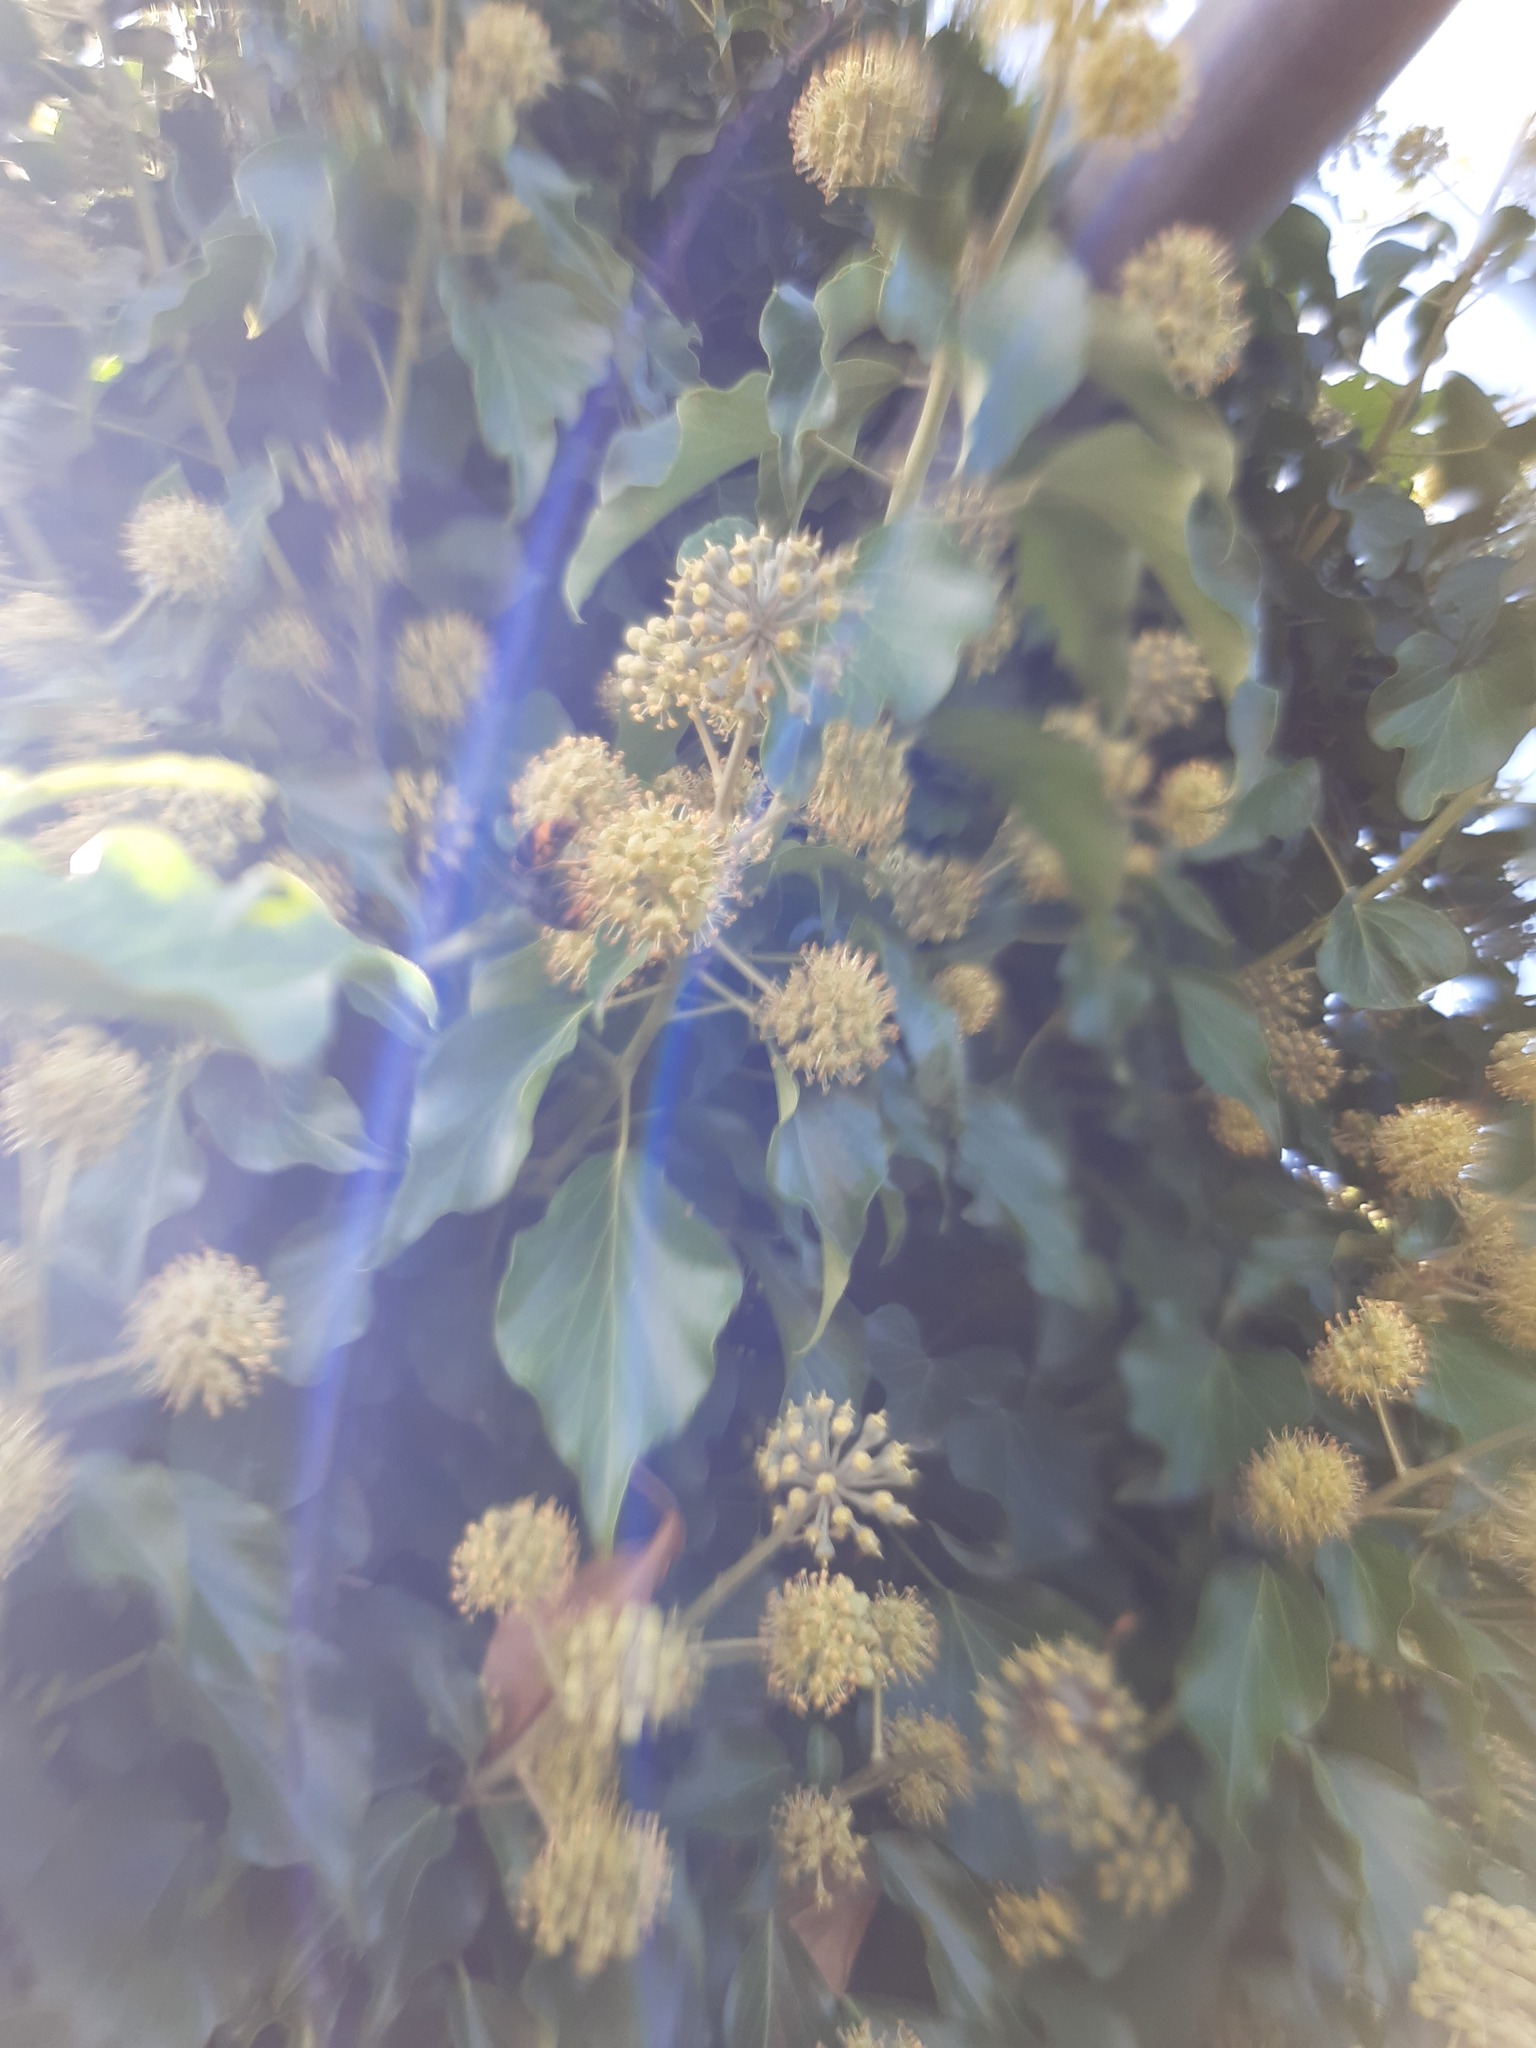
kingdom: Animalia
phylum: Arthropoda
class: Insecta
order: Hymenoptera
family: Vespidae
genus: Vespa
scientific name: Vespa velutina
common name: Asian hornet
